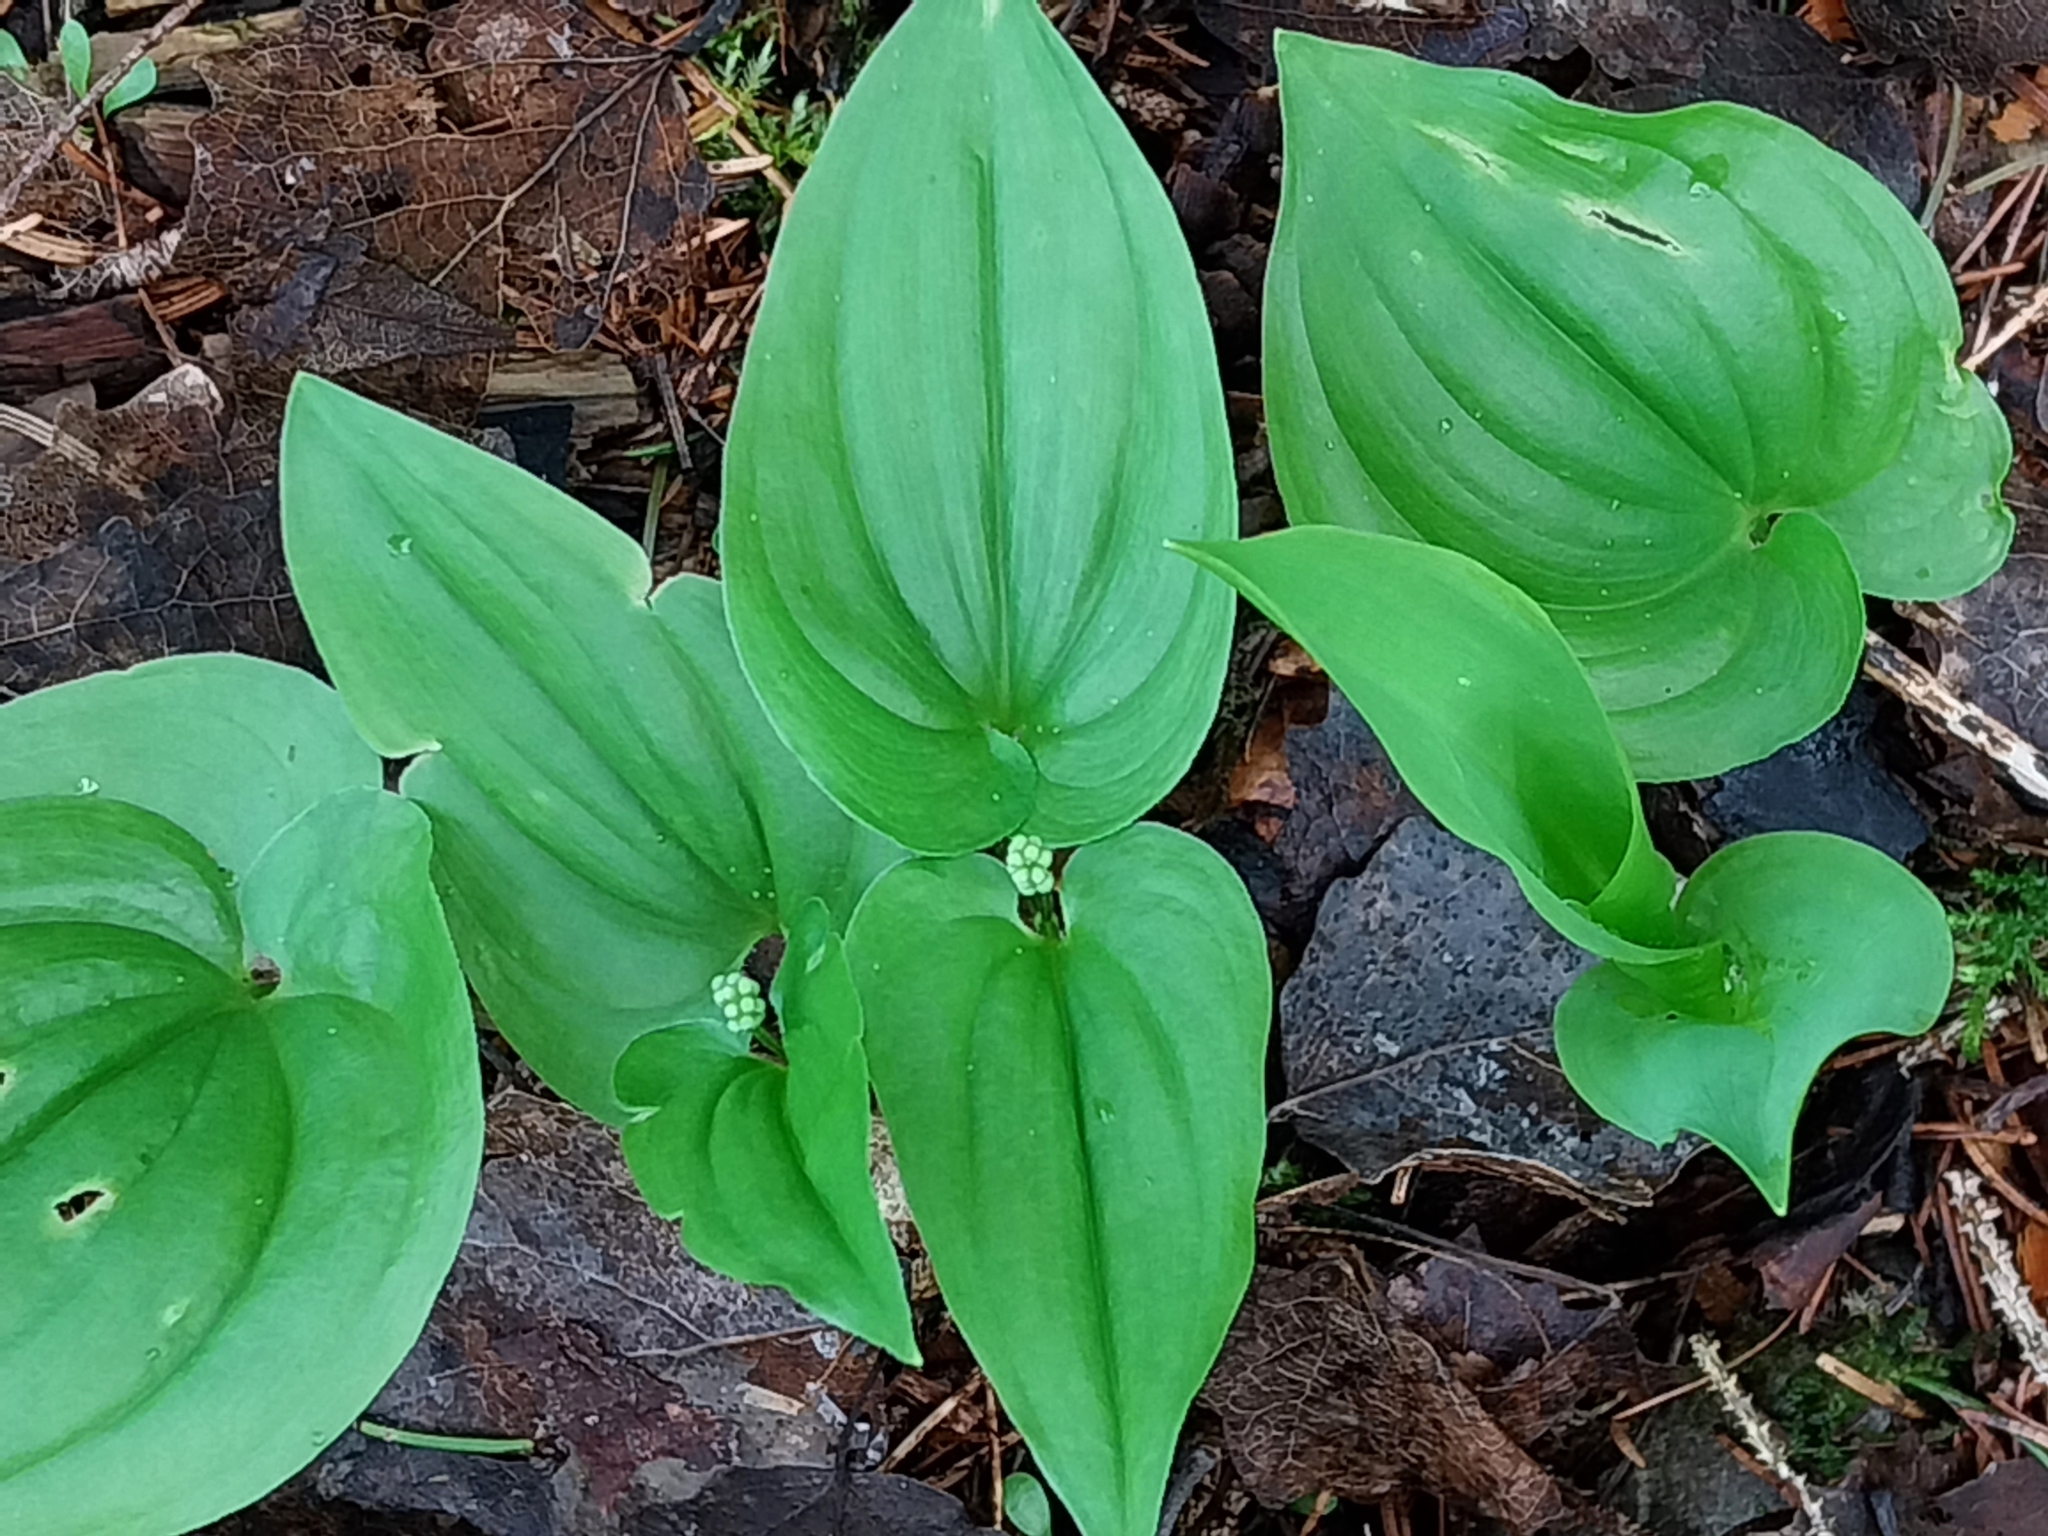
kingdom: Plantae
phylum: Tracheophyta
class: Liliopsida
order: Asparagales
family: Asparagaceae
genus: Maianthemum
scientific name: Maianthemum bifolium
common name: May lily
